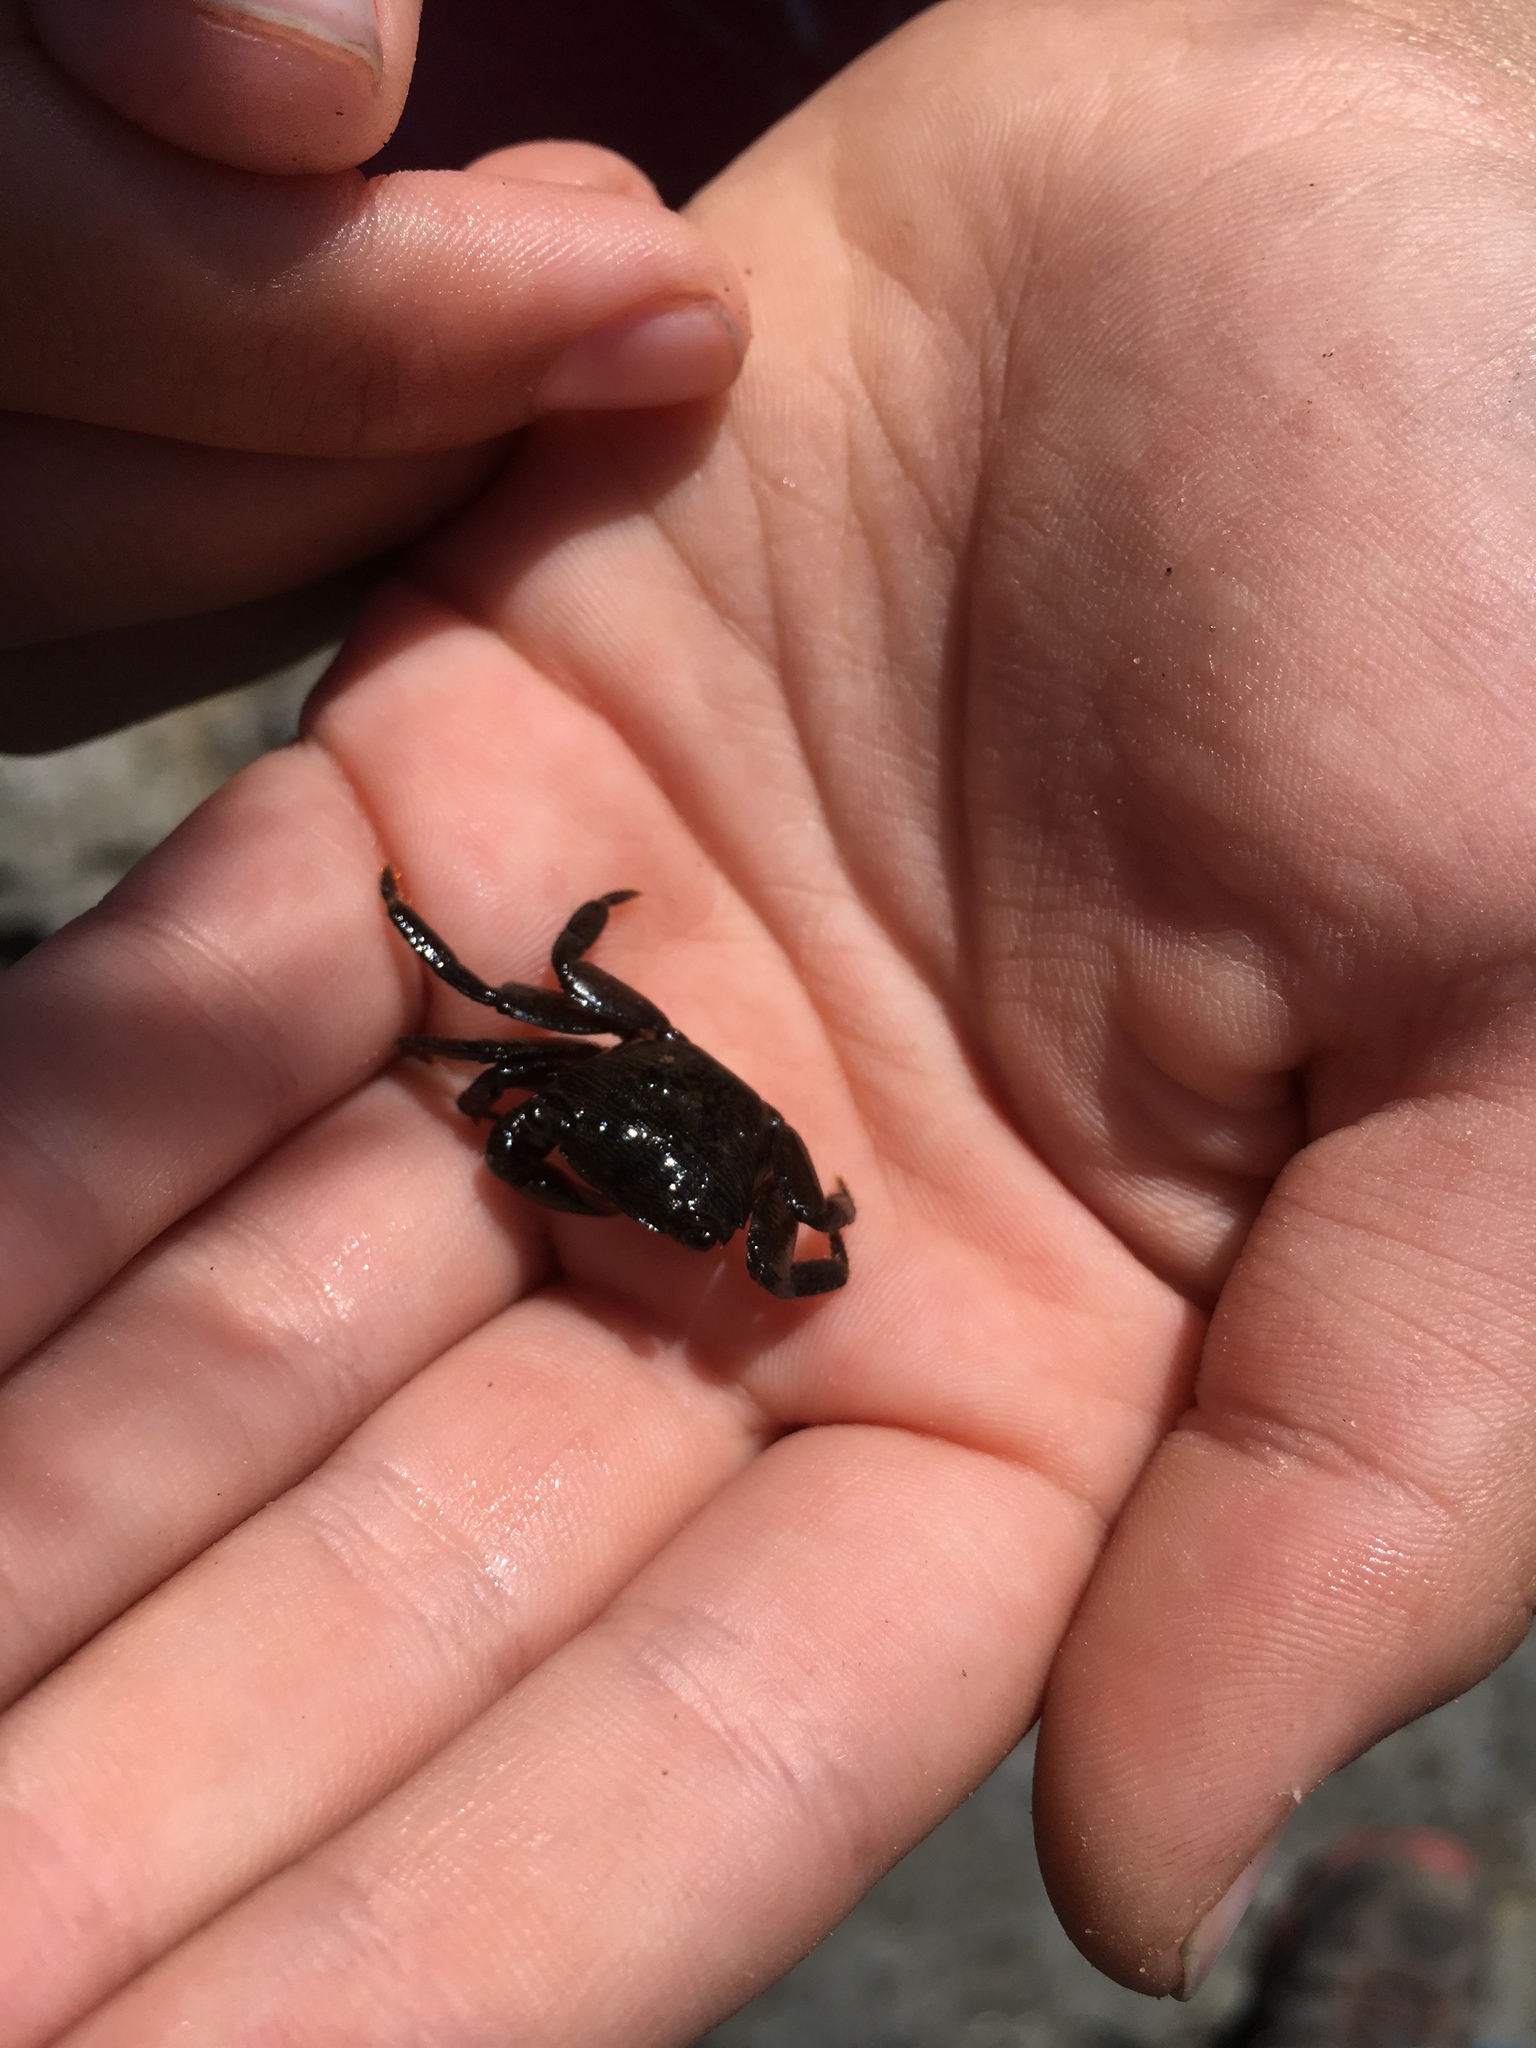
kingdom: Animalia
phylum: Arthropoda
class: Malacostraca
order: Decapoda
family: Grapsidae
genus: Pachygrapsus
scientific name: Pachygrapsus crassipes
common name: Striped shore crab
